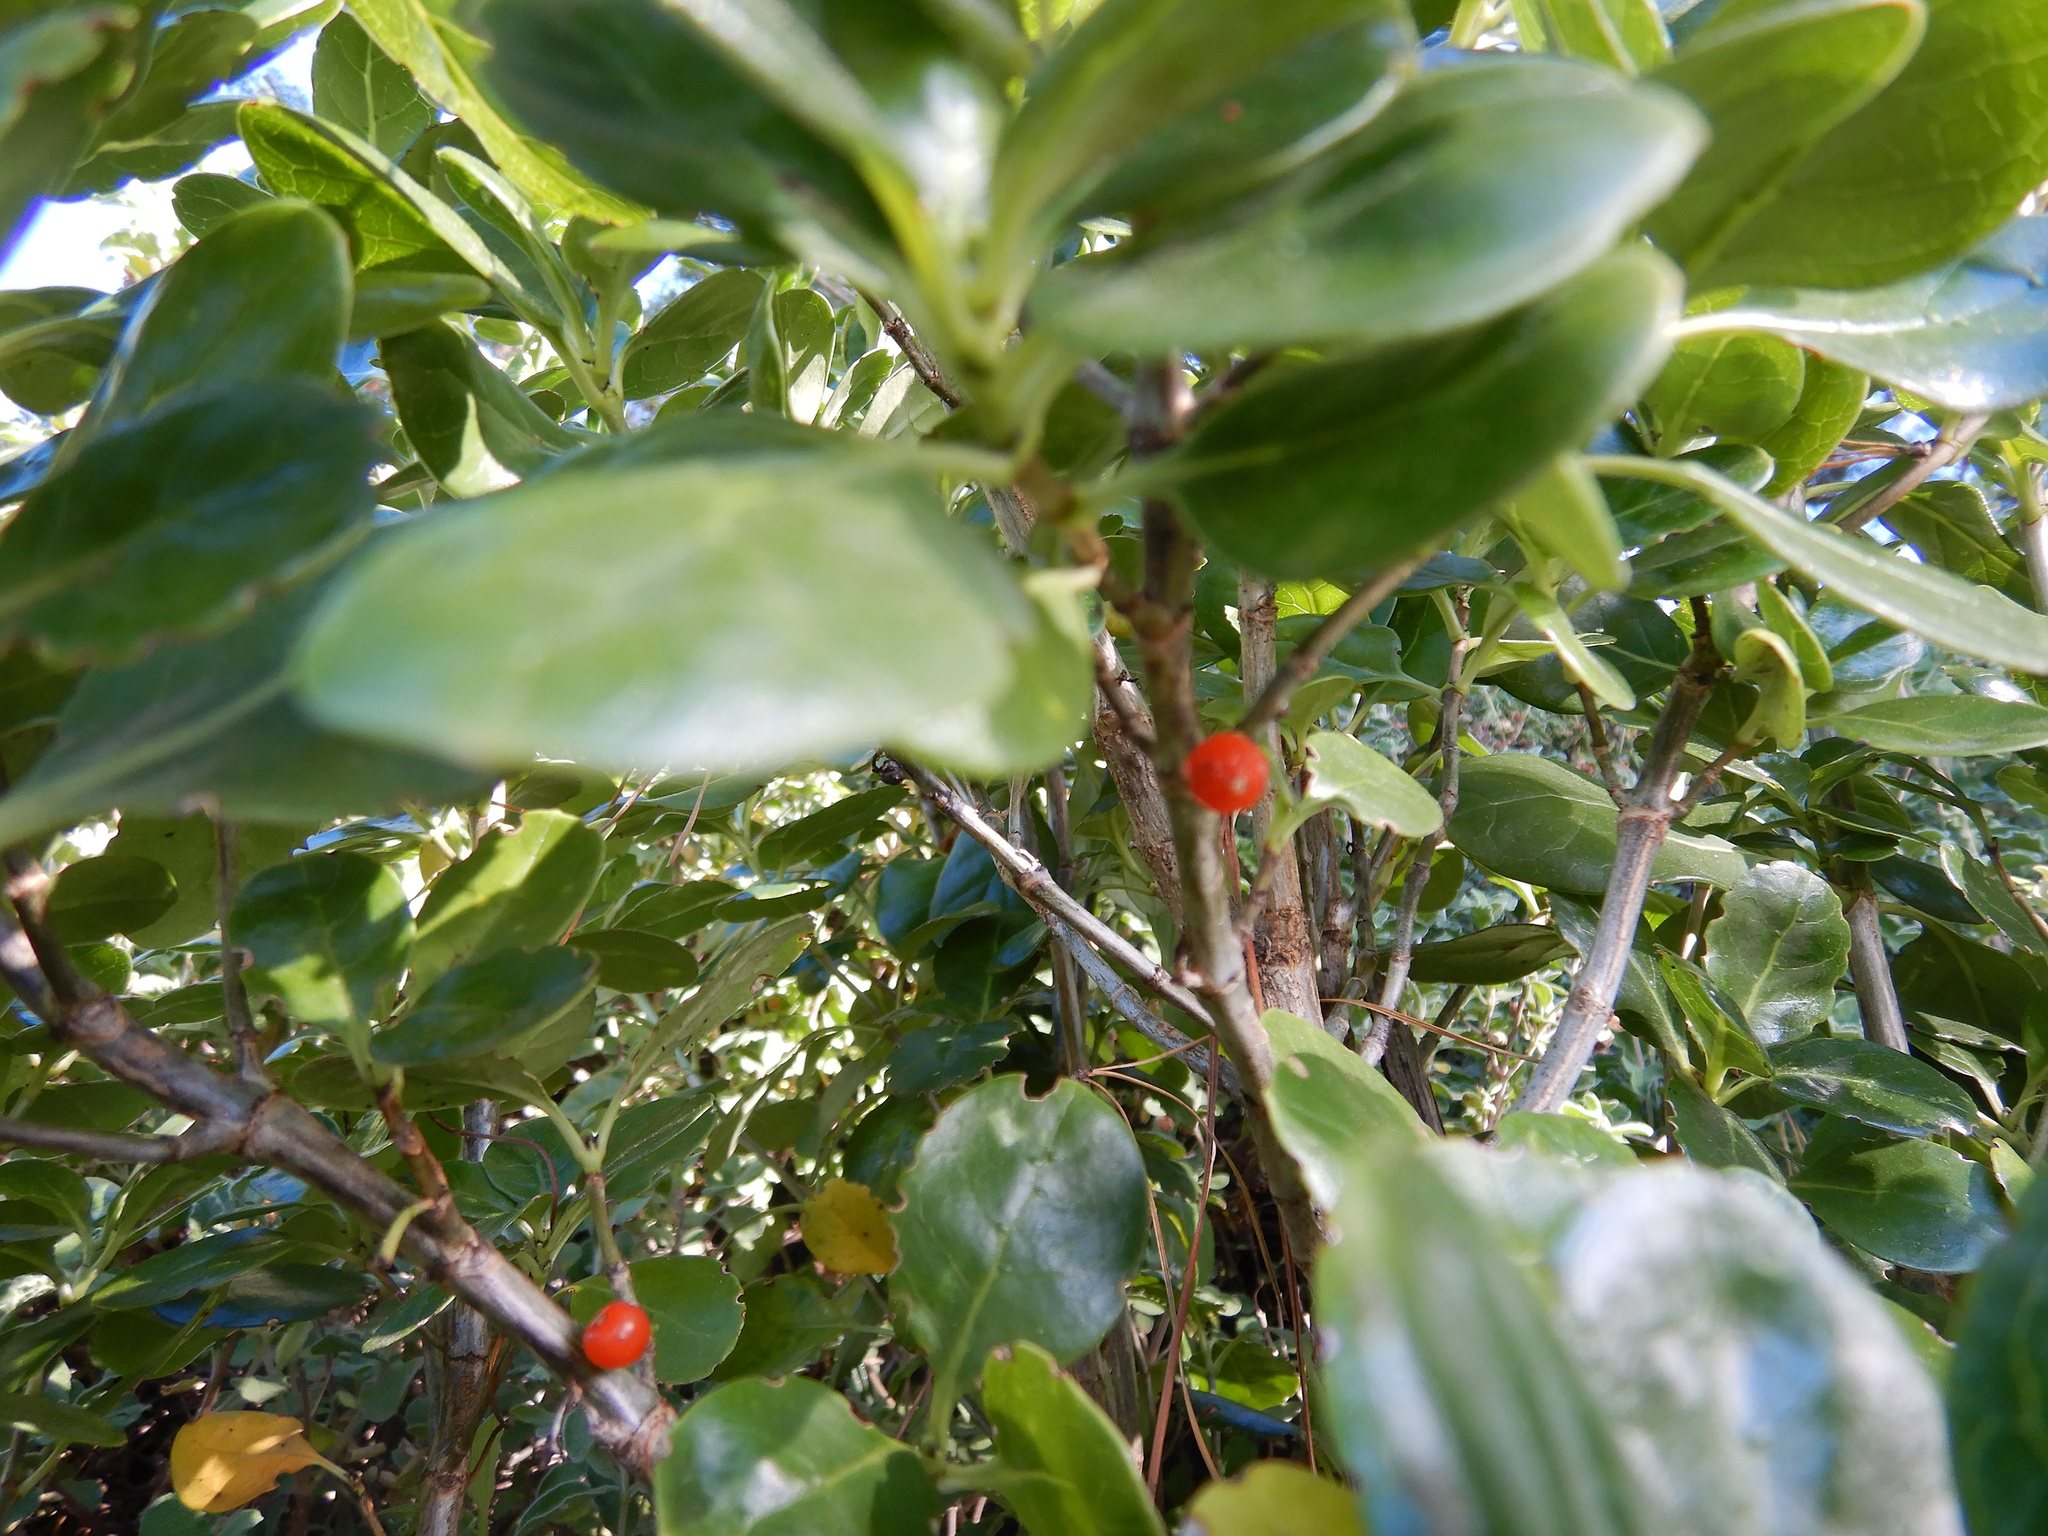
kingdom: Plantae
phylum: Tracheophyta
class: Magnoliopsida
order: Gentianales
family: Rubiaceae
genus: Coprosma
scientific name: Coprosma repens
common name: Tree bedstraw
